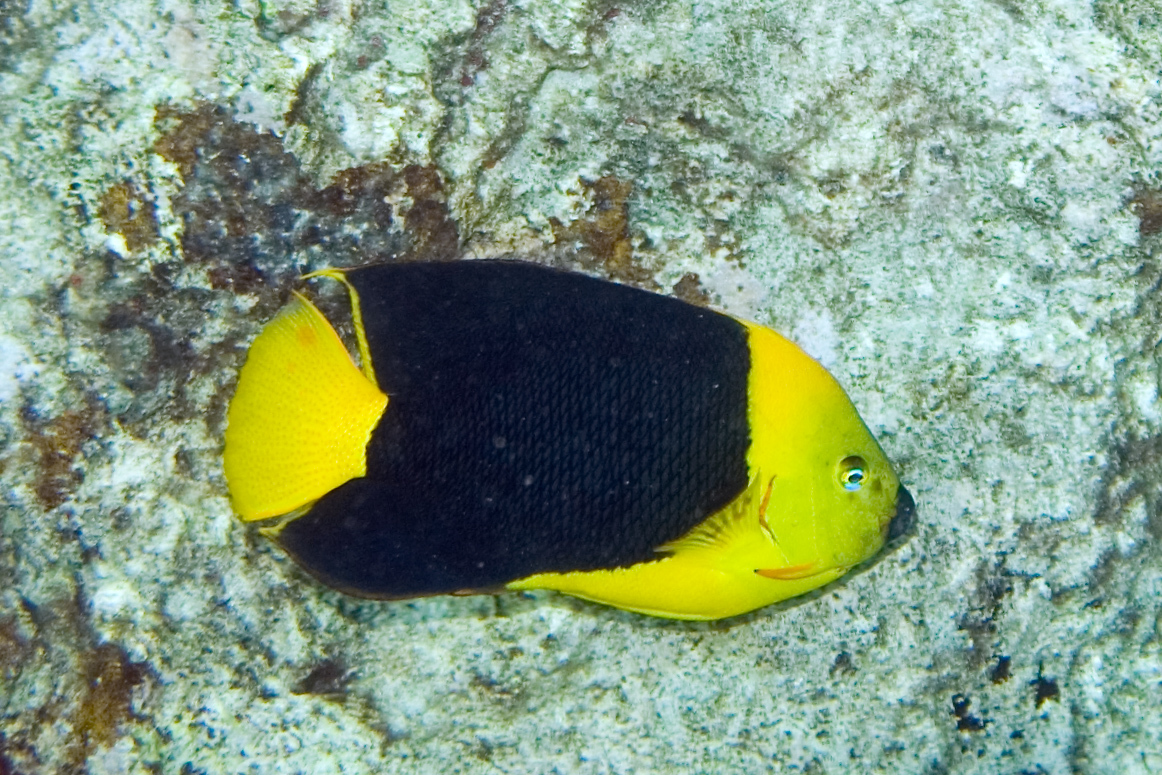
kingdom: Animalia
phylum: Chordata
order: Perciformes
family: Pomacanthidae
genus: Holacanthus
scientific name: Holacanthus tricolor
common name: Rock beauty
